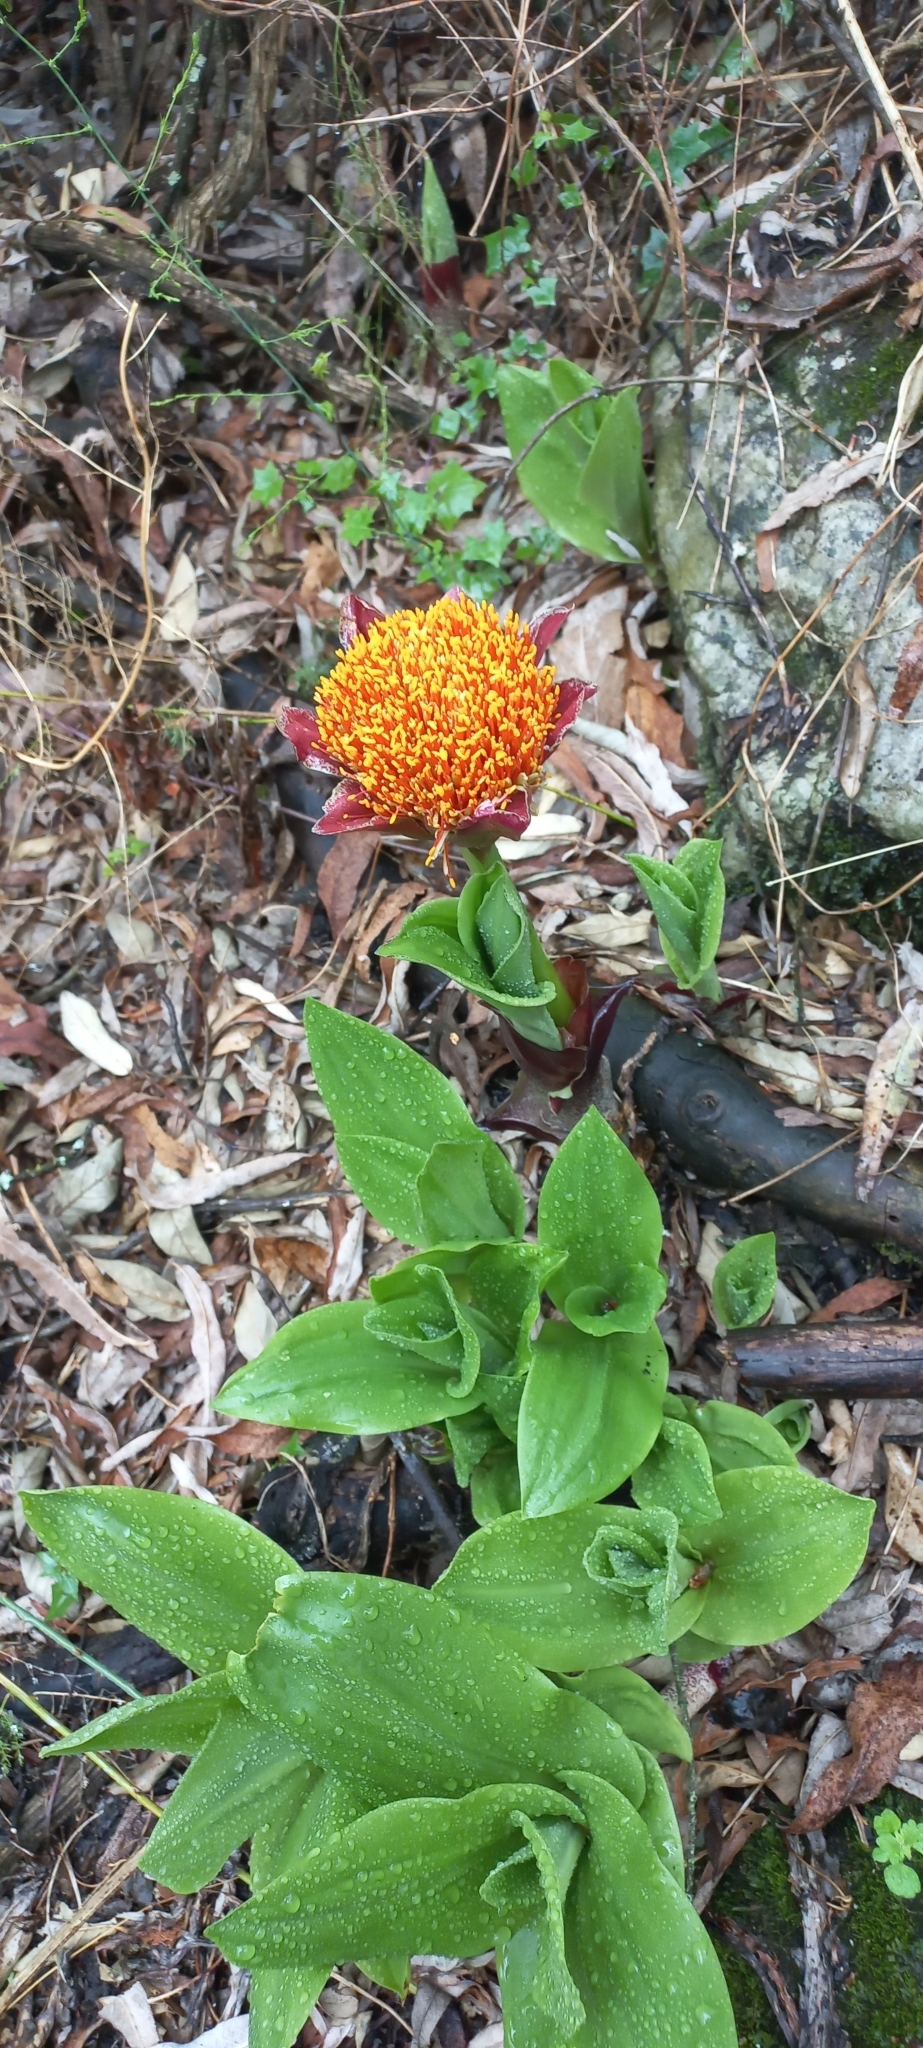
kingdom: Plantae
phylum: Tracheophyta
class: Liliopsida
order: Asparagales
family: Amaryllidaceae
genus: Scadoxus
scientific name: Scadoxus puniceus
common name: Royal-paintbrush
